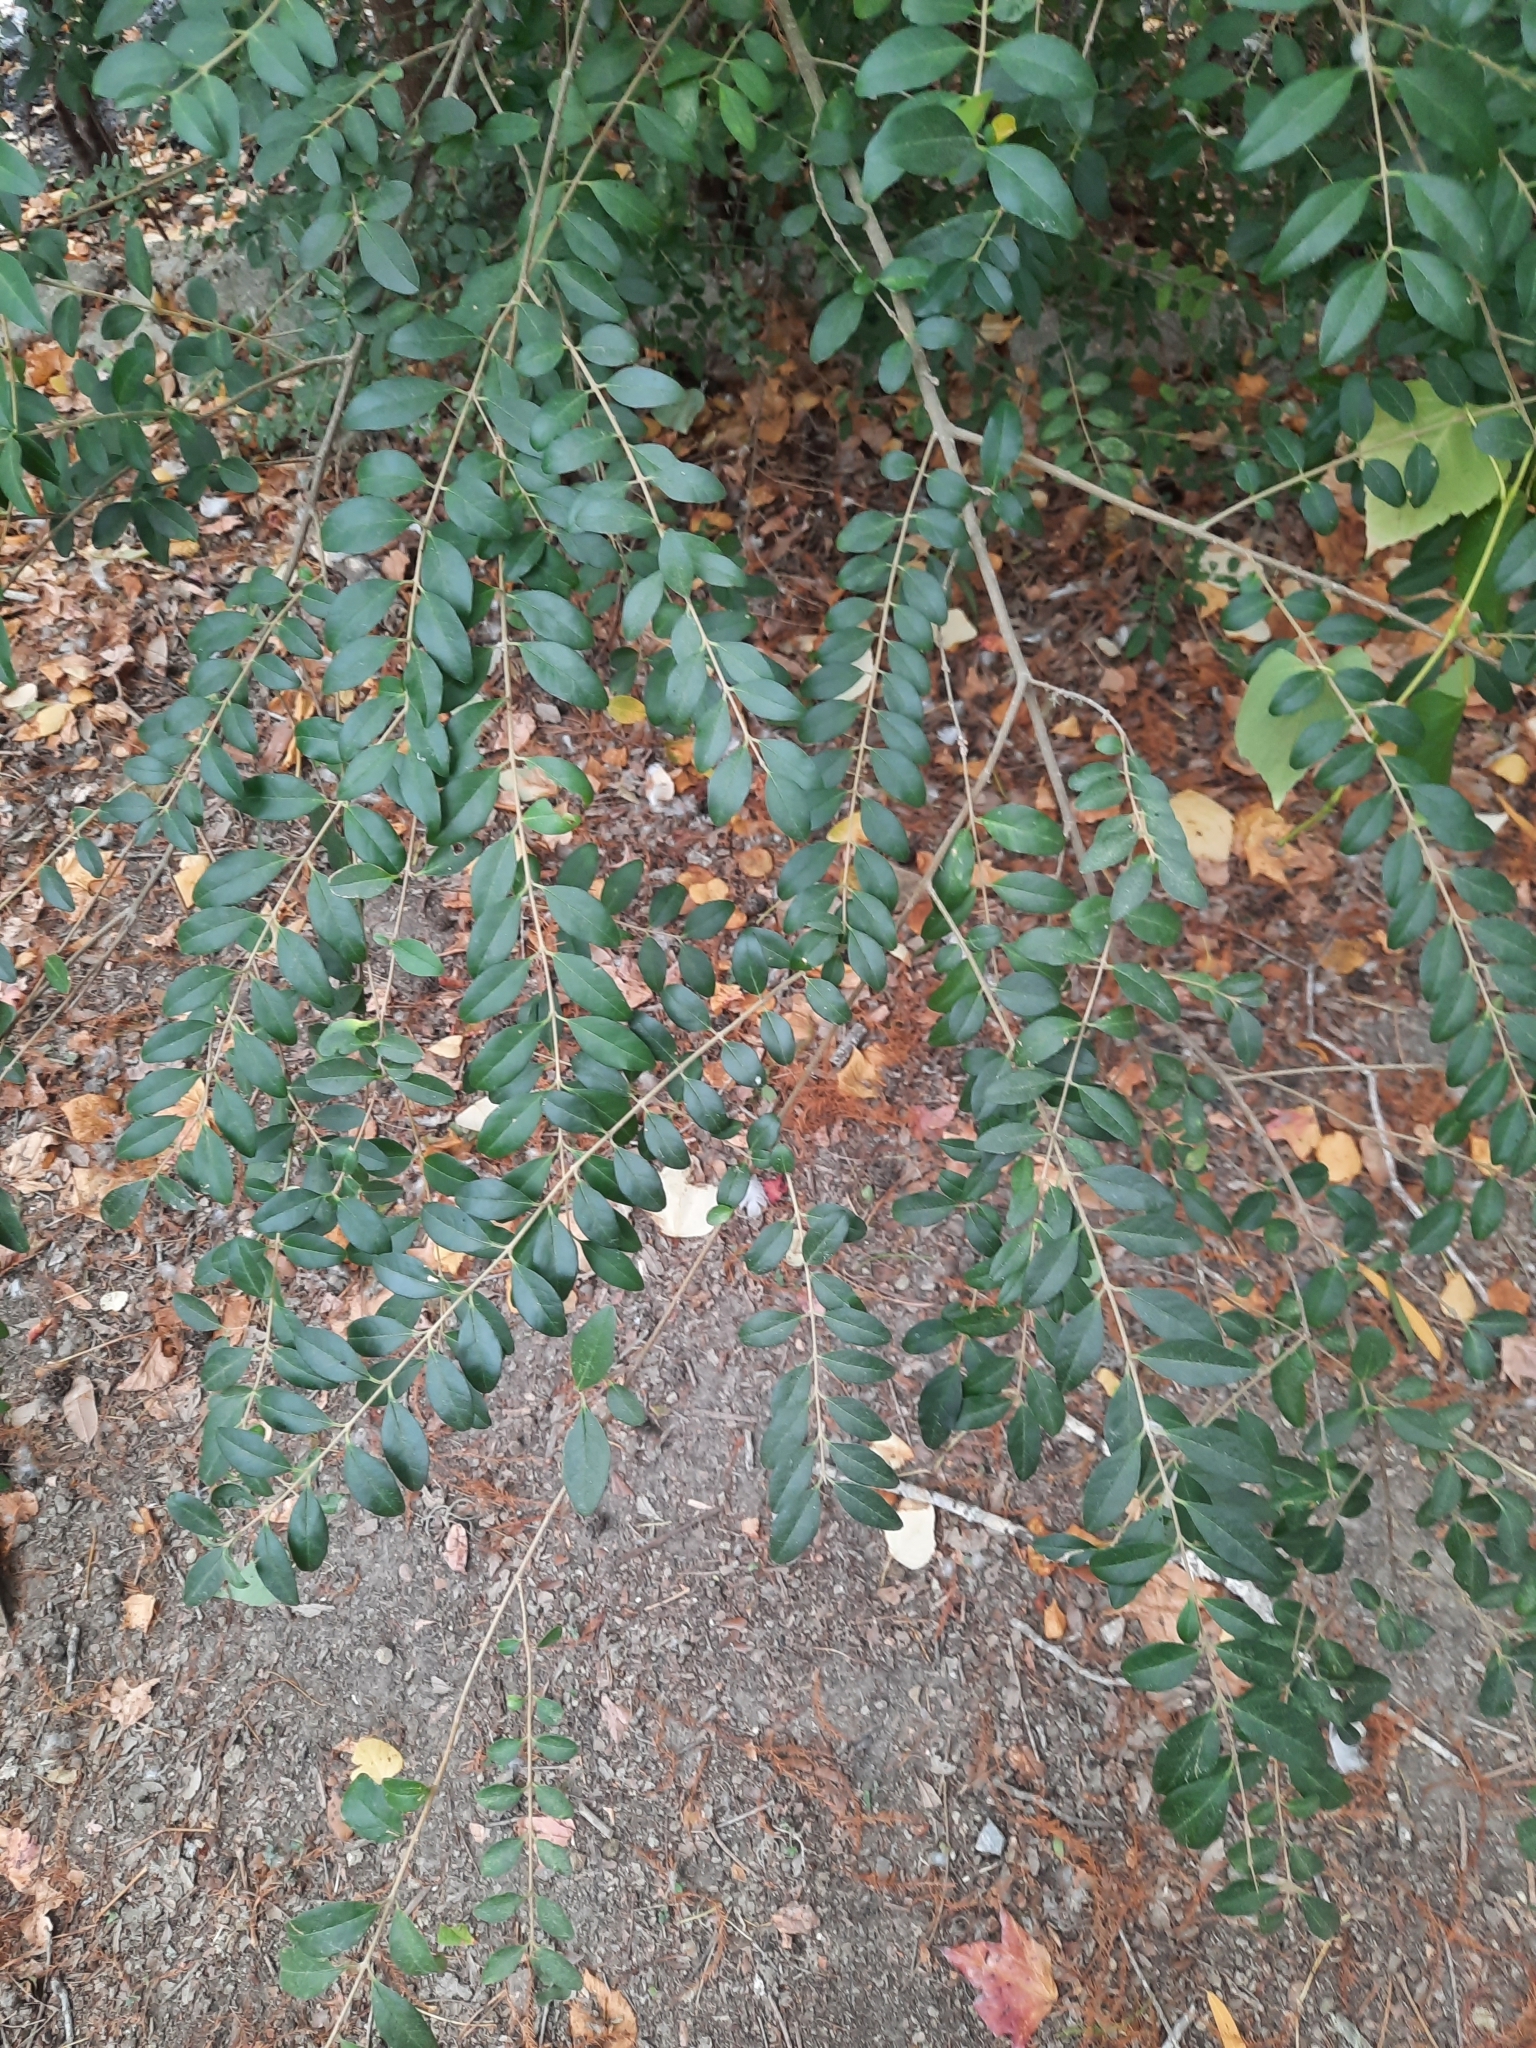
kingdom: Plantae
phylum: Tracheophyta
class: Magnoliopsida
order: Lamiales
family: Oleaceae
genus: Ligustrum
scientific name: Ligustrum sinense
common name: Chinese privet
